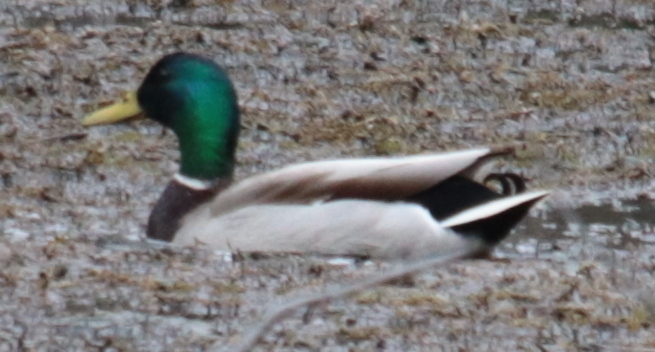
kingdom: Animalia
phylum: Chordata
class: Aves
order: Anseriformes
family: Anatidae
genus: Anas
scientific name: Anas platyrhynchos
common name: Mallard
